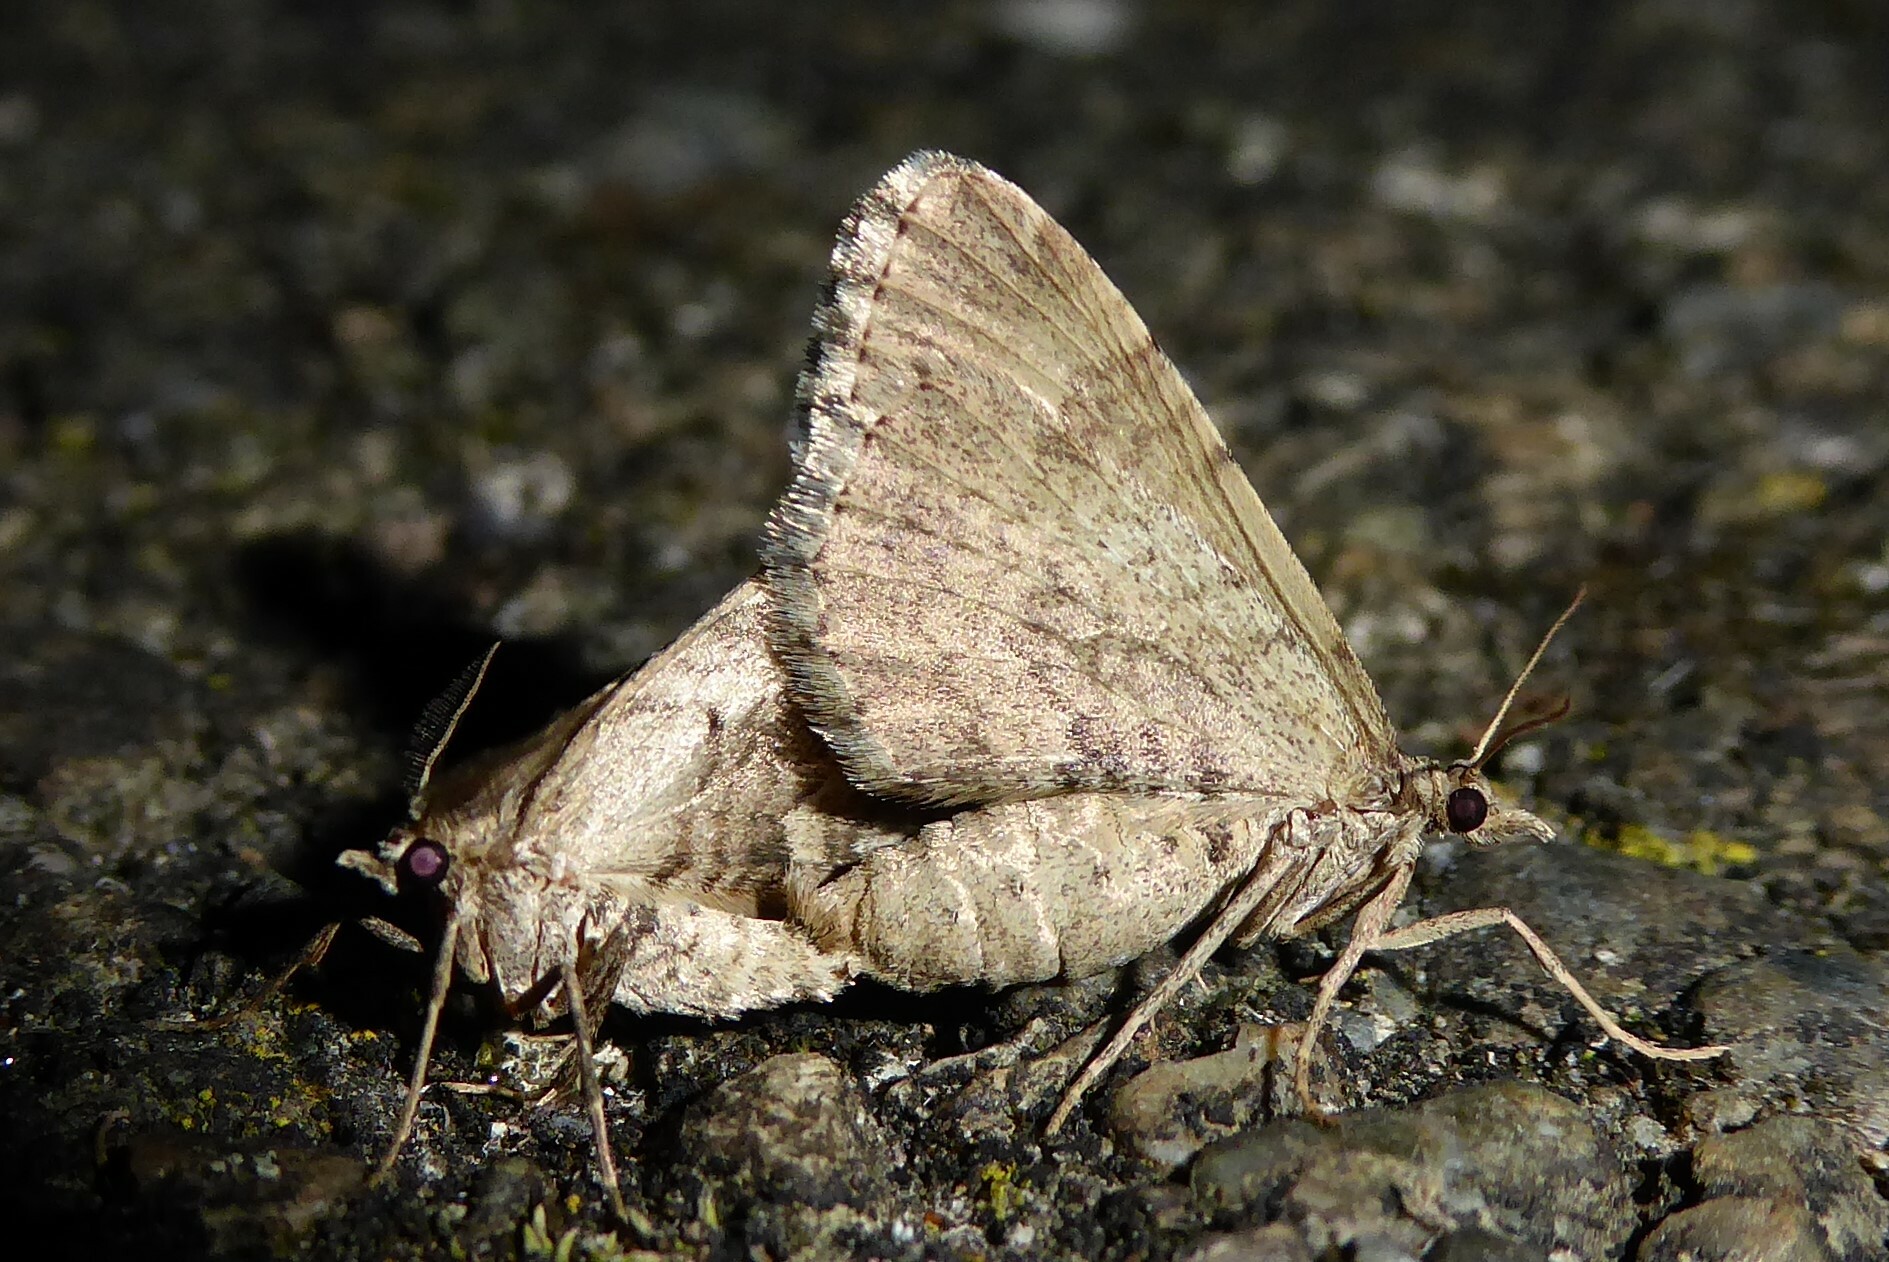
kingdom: Animalia
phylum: Arthropoda
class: Insecta
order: Lepidoptera
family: Geometridae
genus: Asaphodes
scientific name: Asaphodes aegrota
